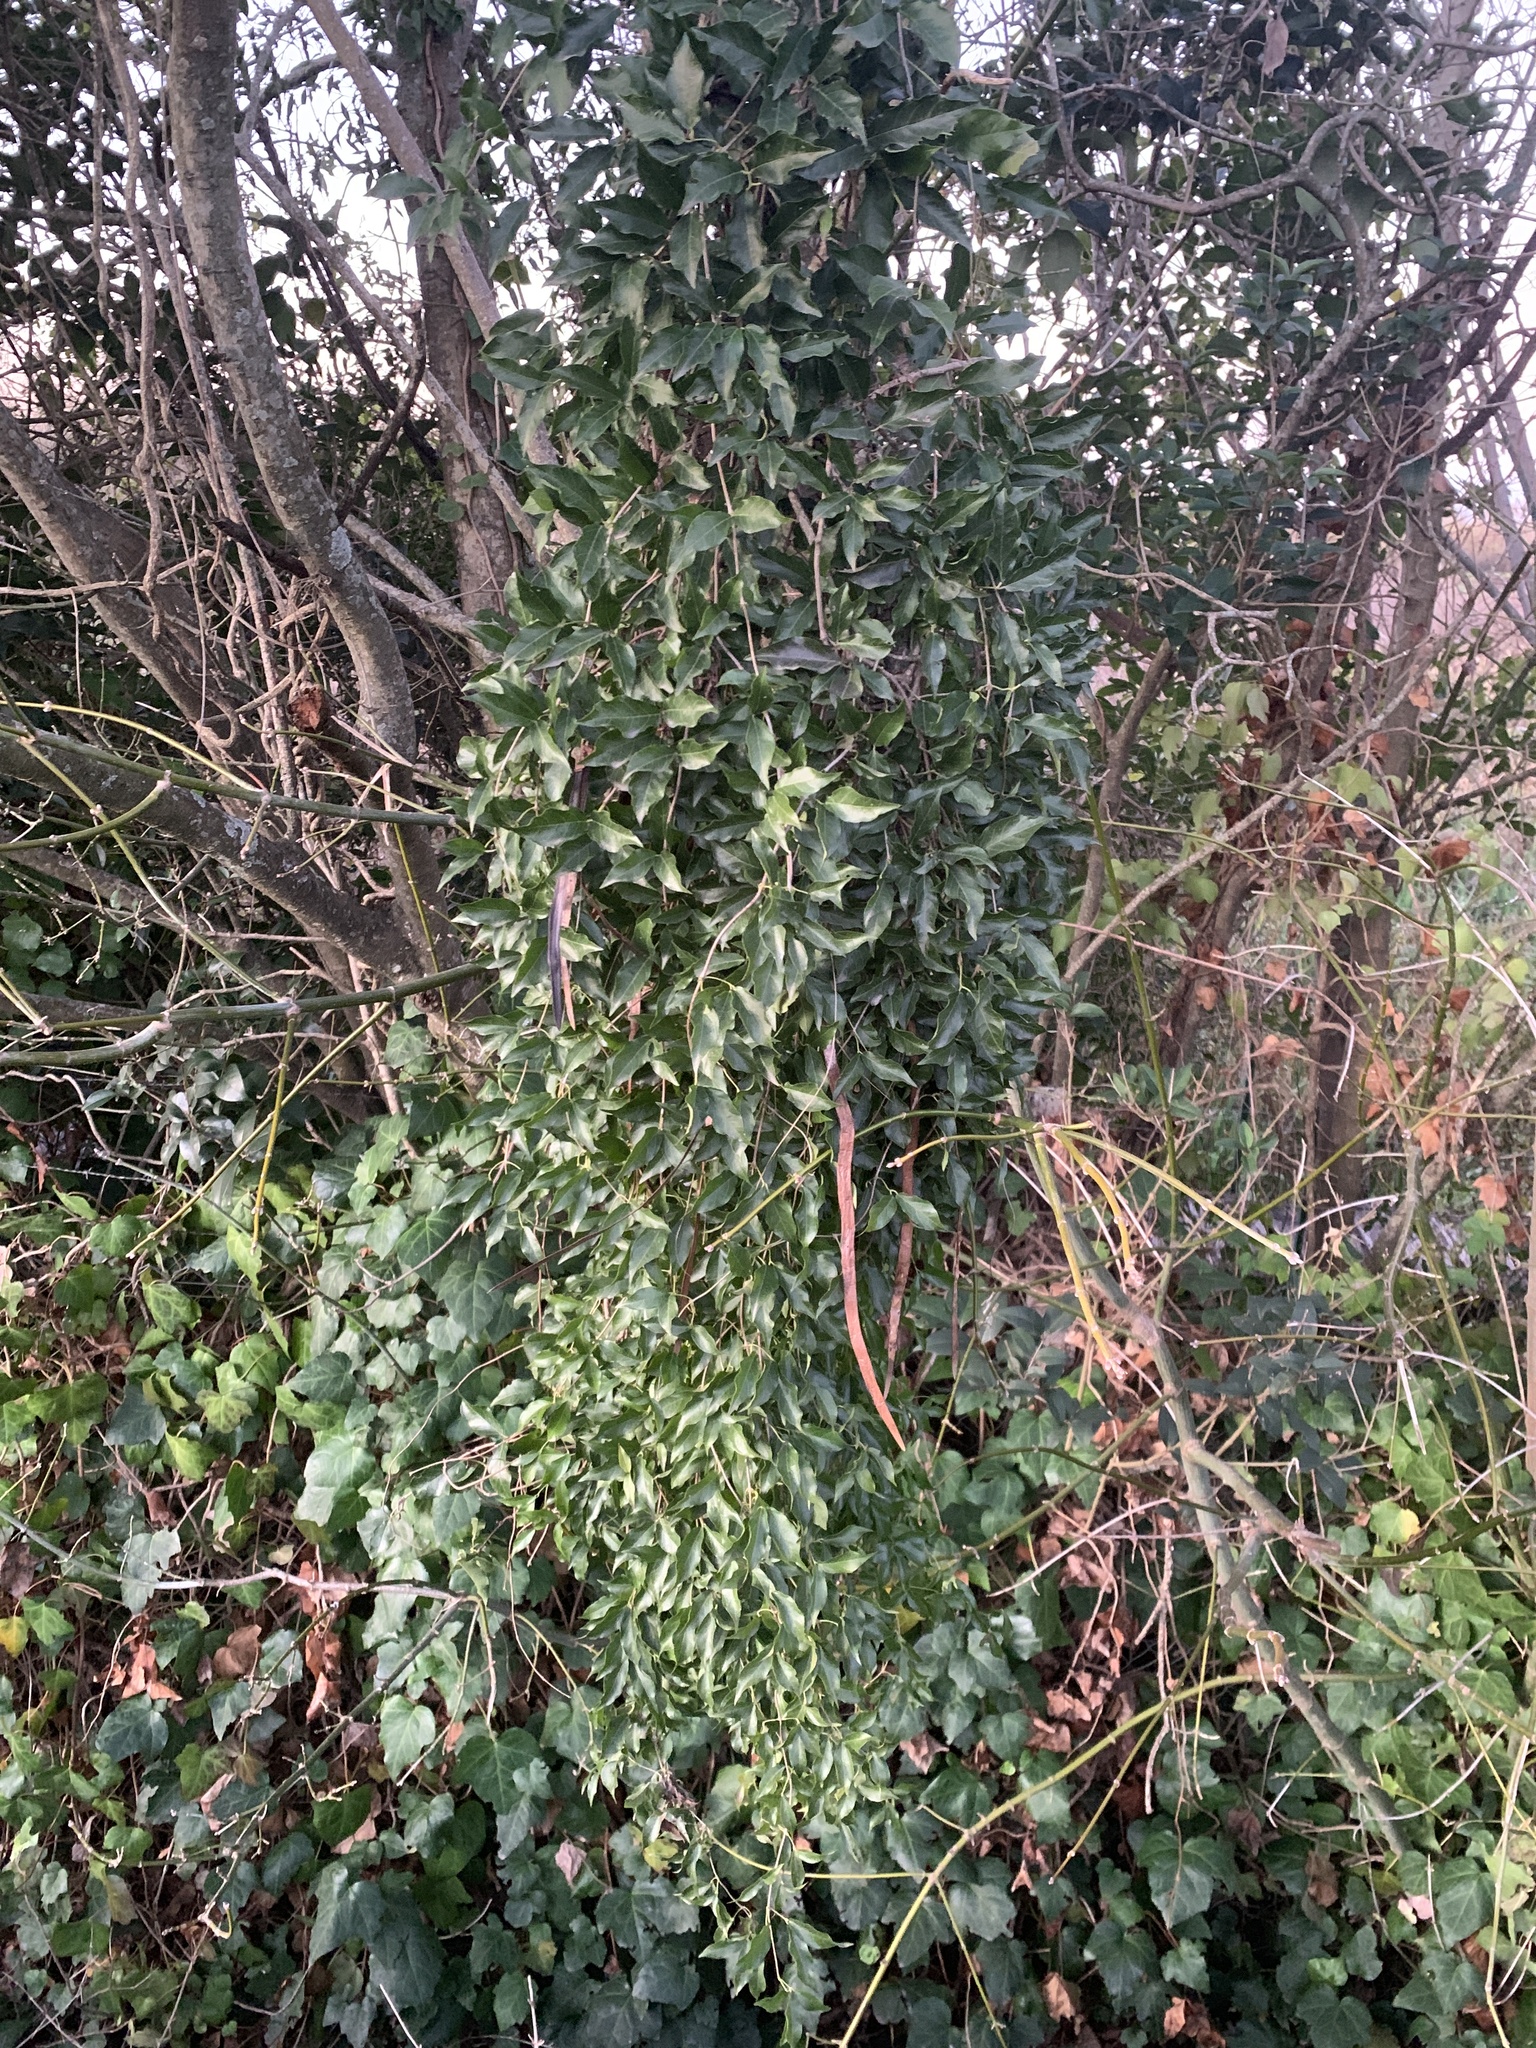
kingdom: Plantae
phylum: Tracheophyta
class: Magnoliopsida
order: Lamiales
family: Bignoniaceae
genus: Dolichandra
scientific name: Dolichandra unguis-cati
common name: Catclaw vine
